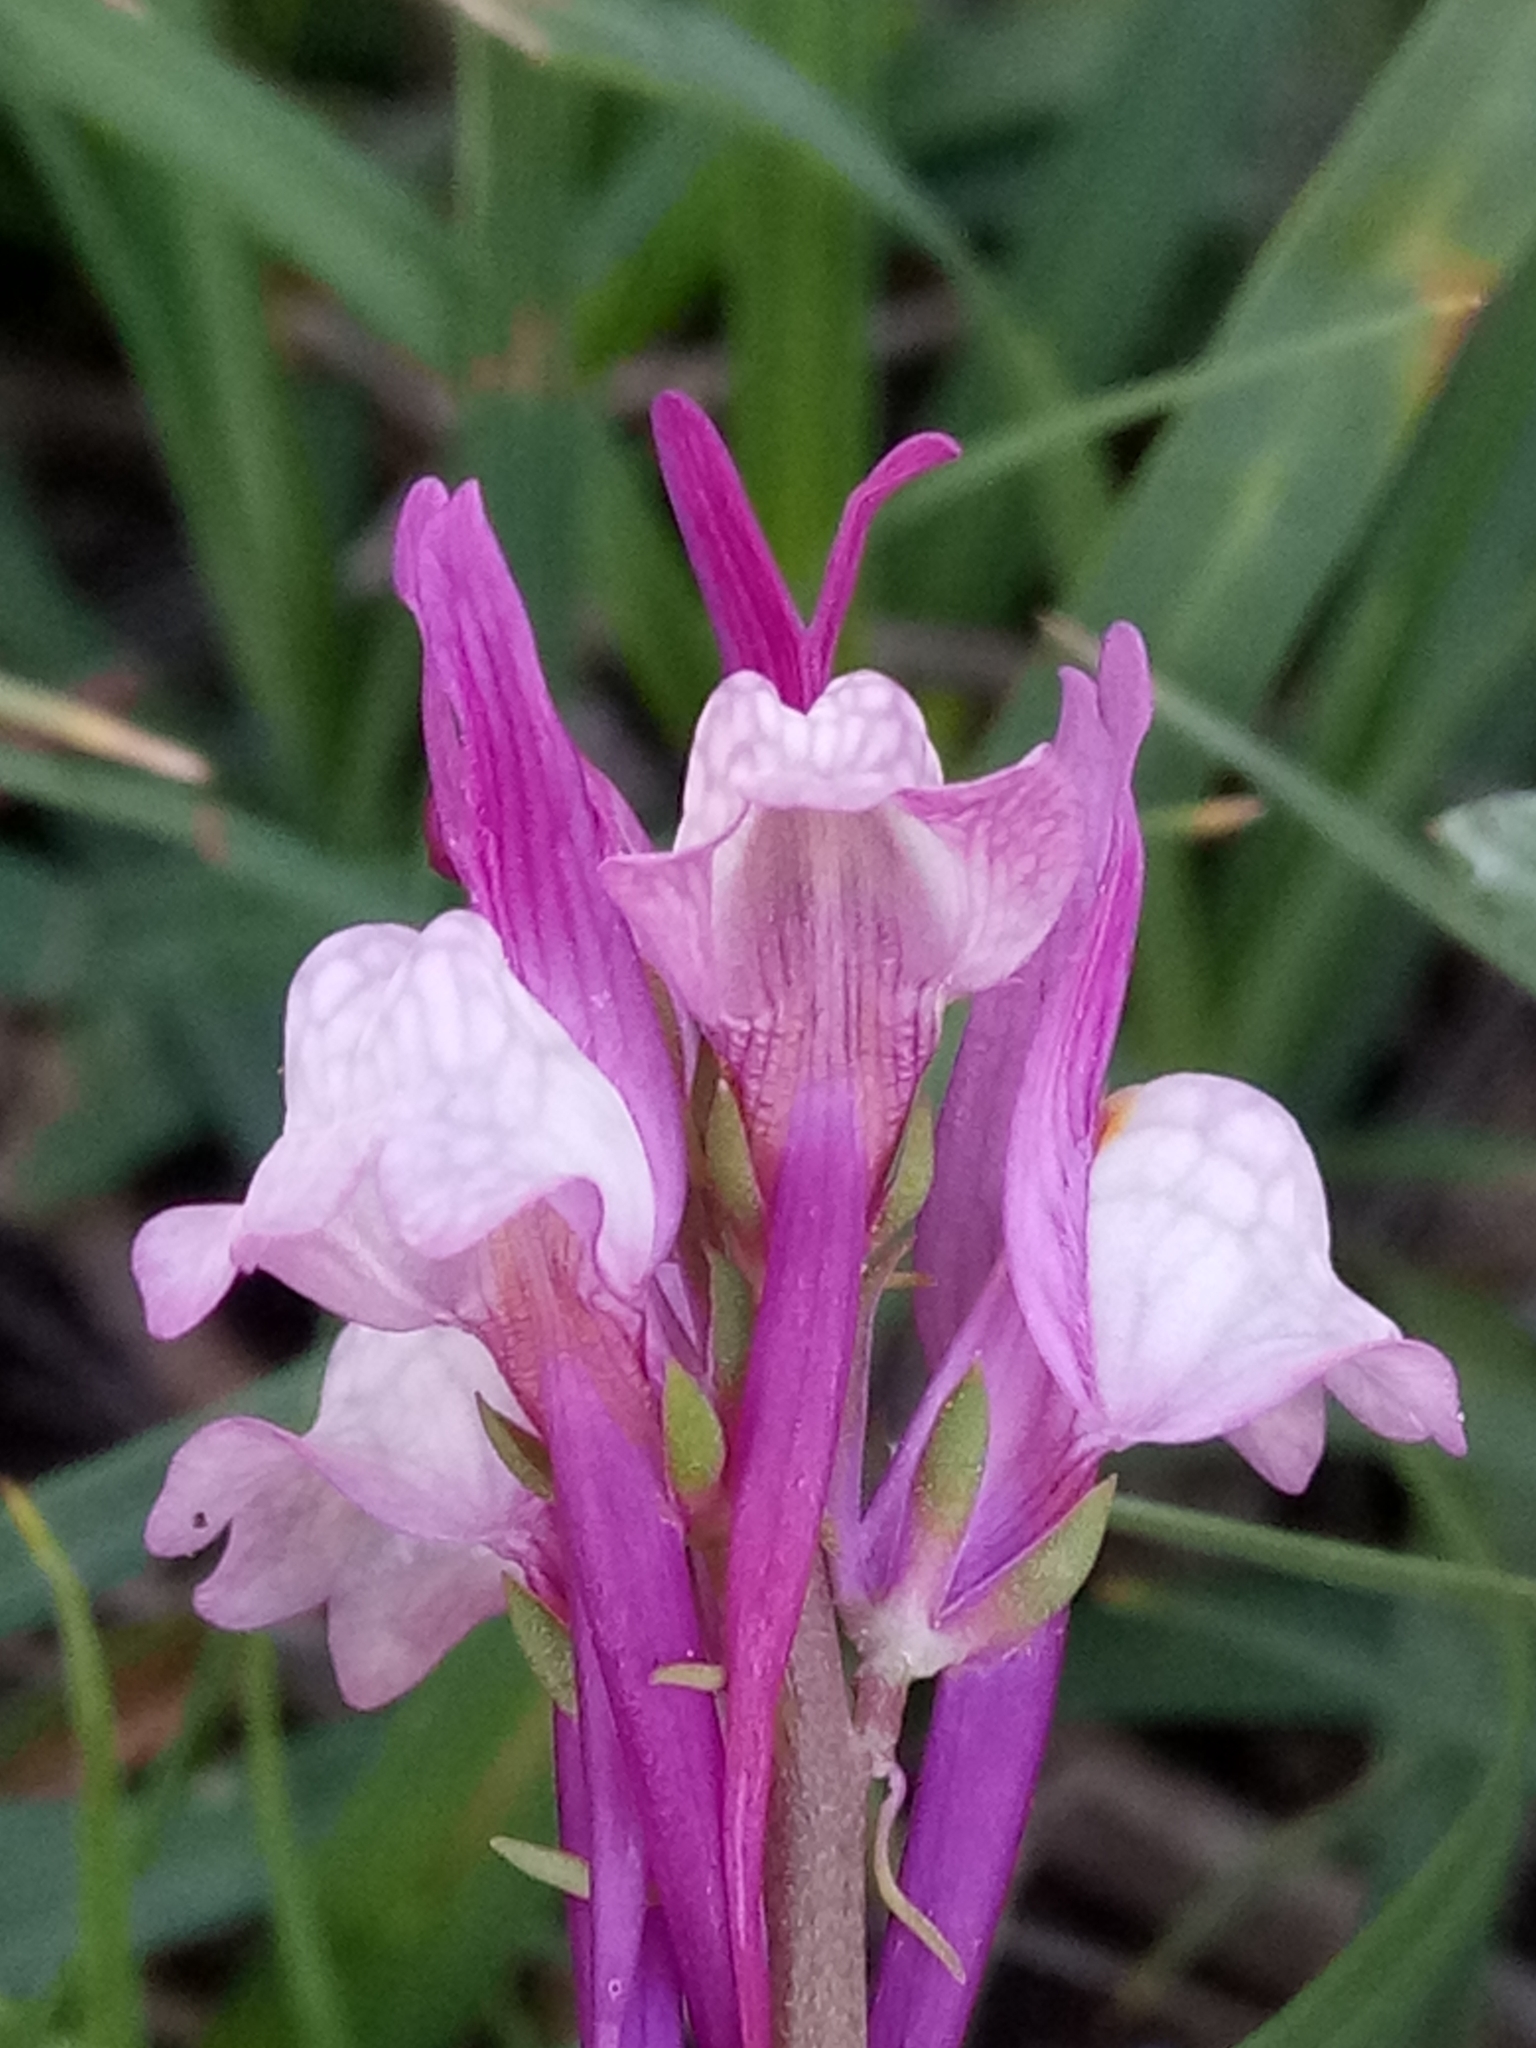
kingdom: Plantae
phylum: Tracheophyta
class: Magnoliopsida
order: Lamiales
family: Plantaginaceae
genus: Linaria
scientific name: Linaria virgata
